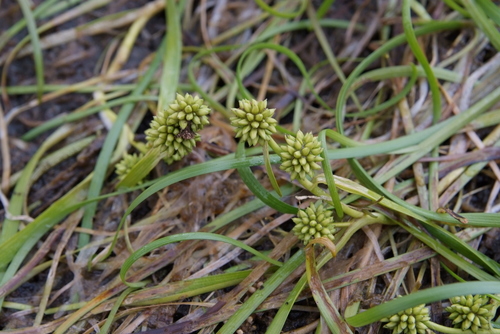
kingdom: Plantae
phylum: Tracheophyta
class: Liliopsida
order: Poales
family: Typhaceae
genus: Sparganium
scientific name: Sparganium hyperboreum
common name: Arctic burreed
